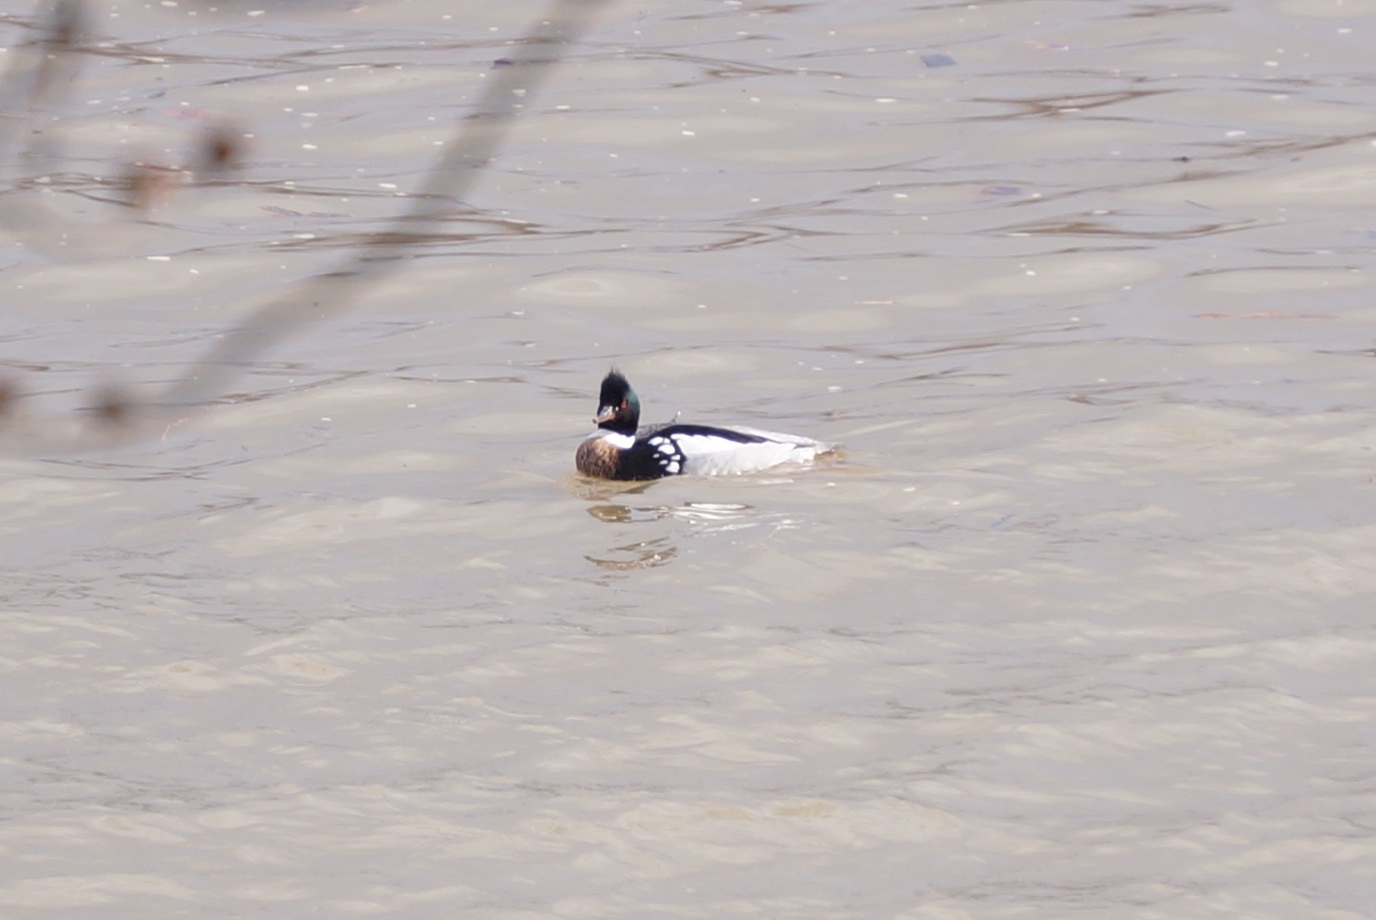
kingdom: Animalia
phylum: Chordata
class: Aves
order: Anseriformes
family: Anatidae
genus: Mergus
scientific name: Mergus serrator
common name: Red-breasted merganser
